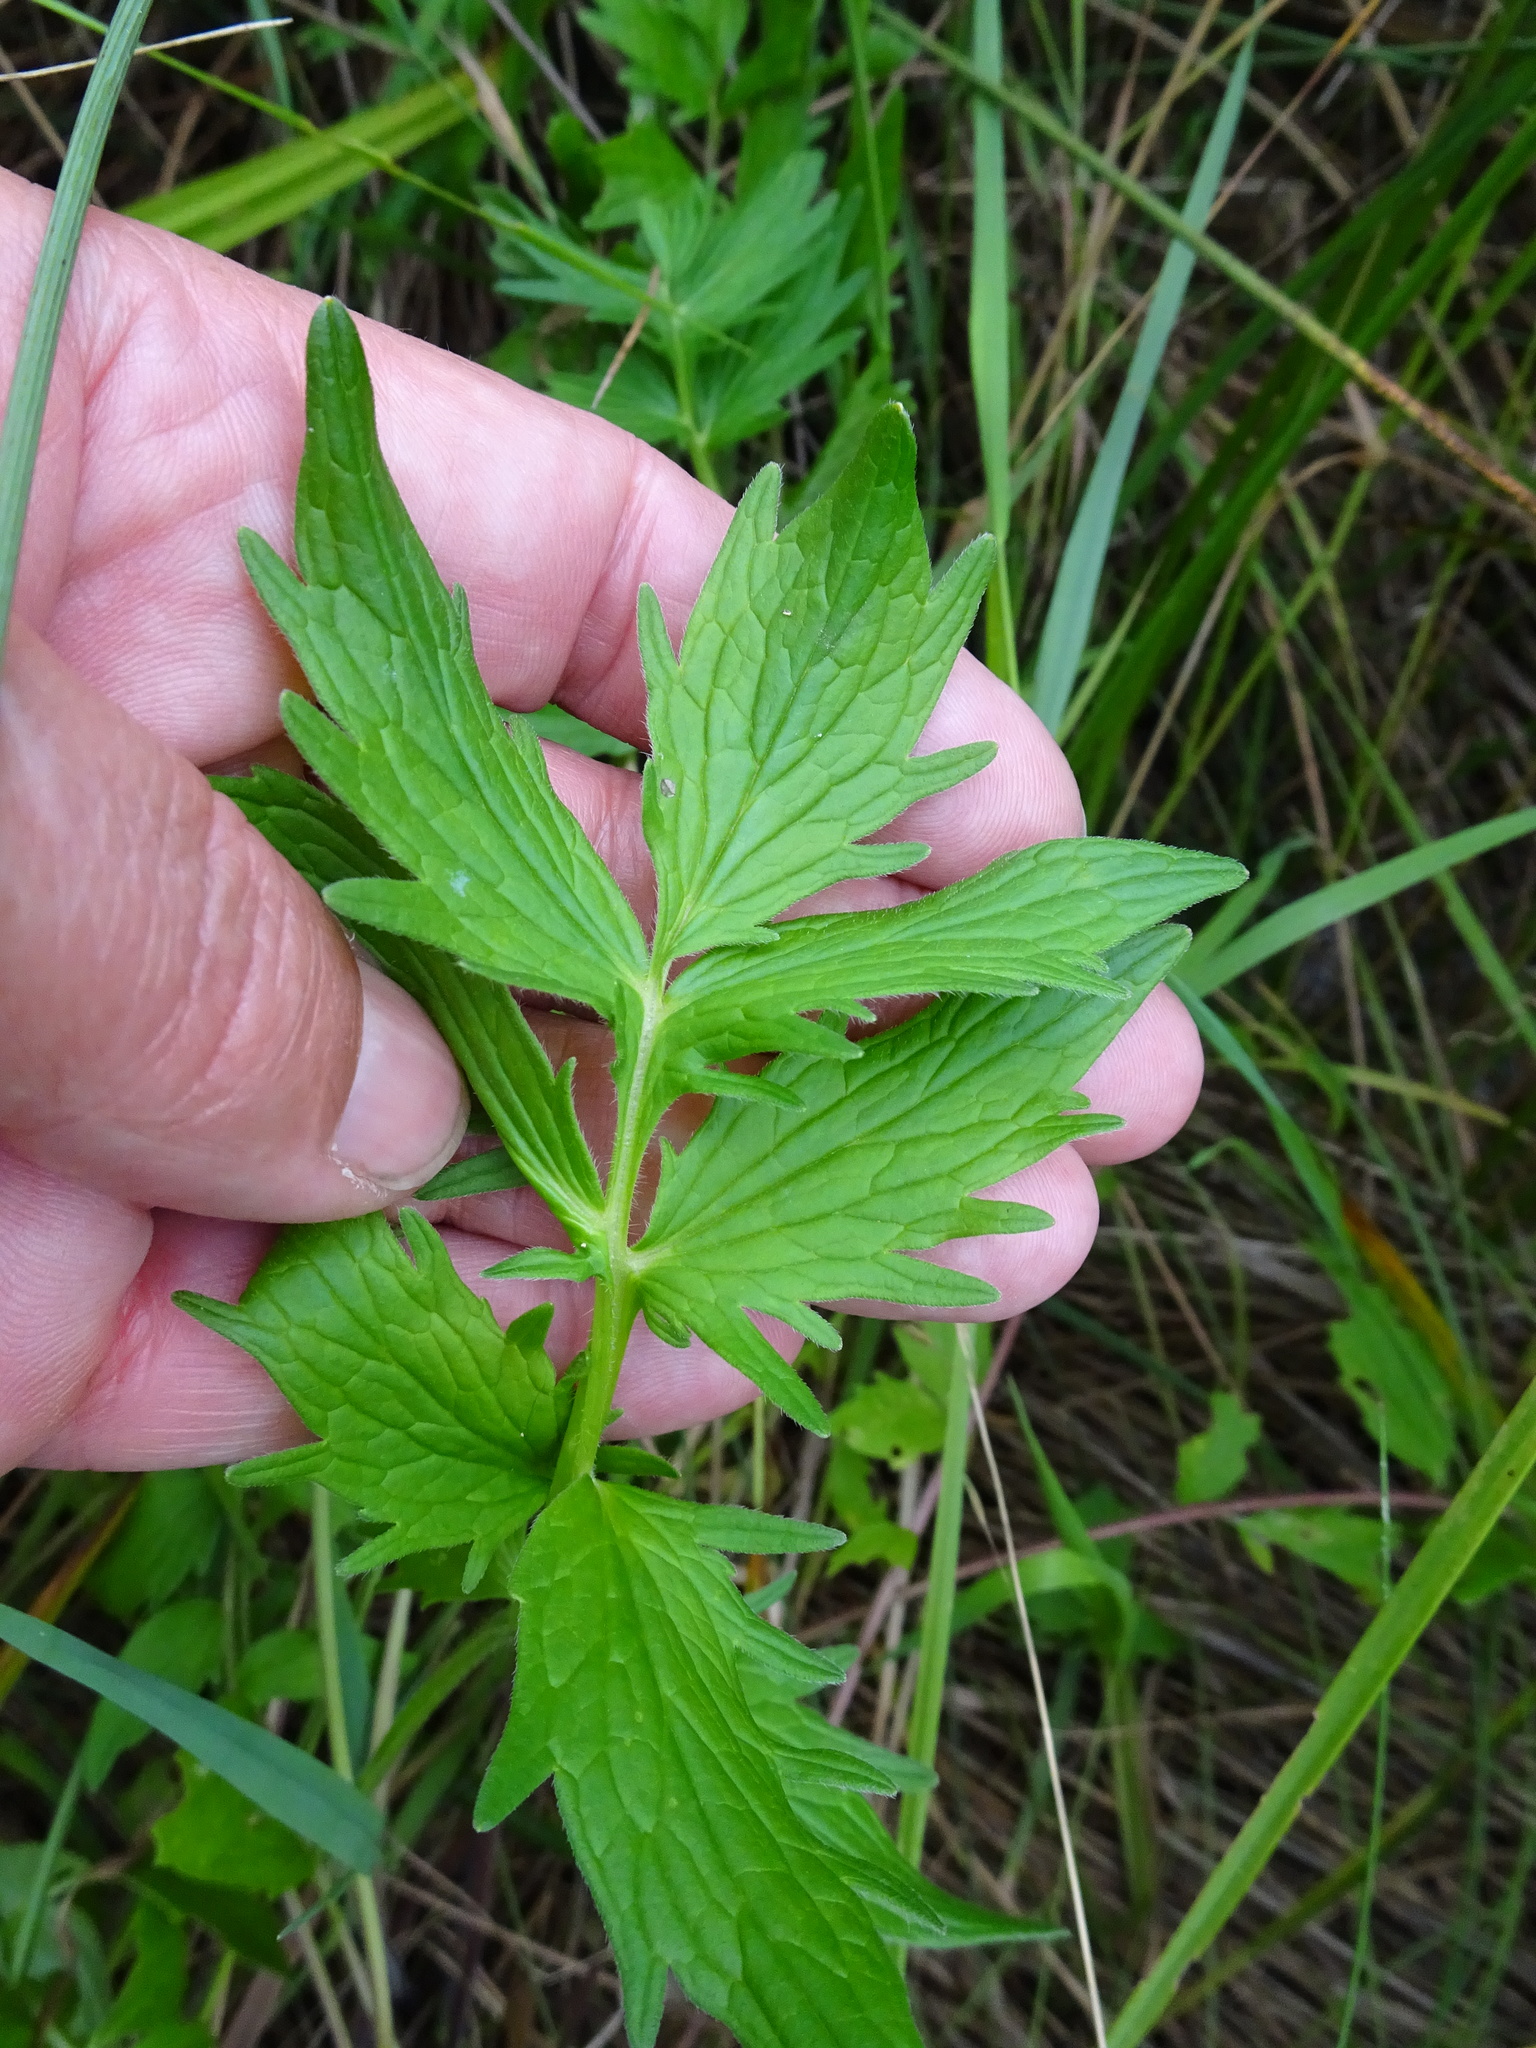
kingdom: Plantae
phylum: Tracheophyta
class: Magnoliopsida
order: Dipsacales
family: Caprifoliaceae
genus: Valeriana
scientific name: Valeriana officinalis
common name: Common valerian
